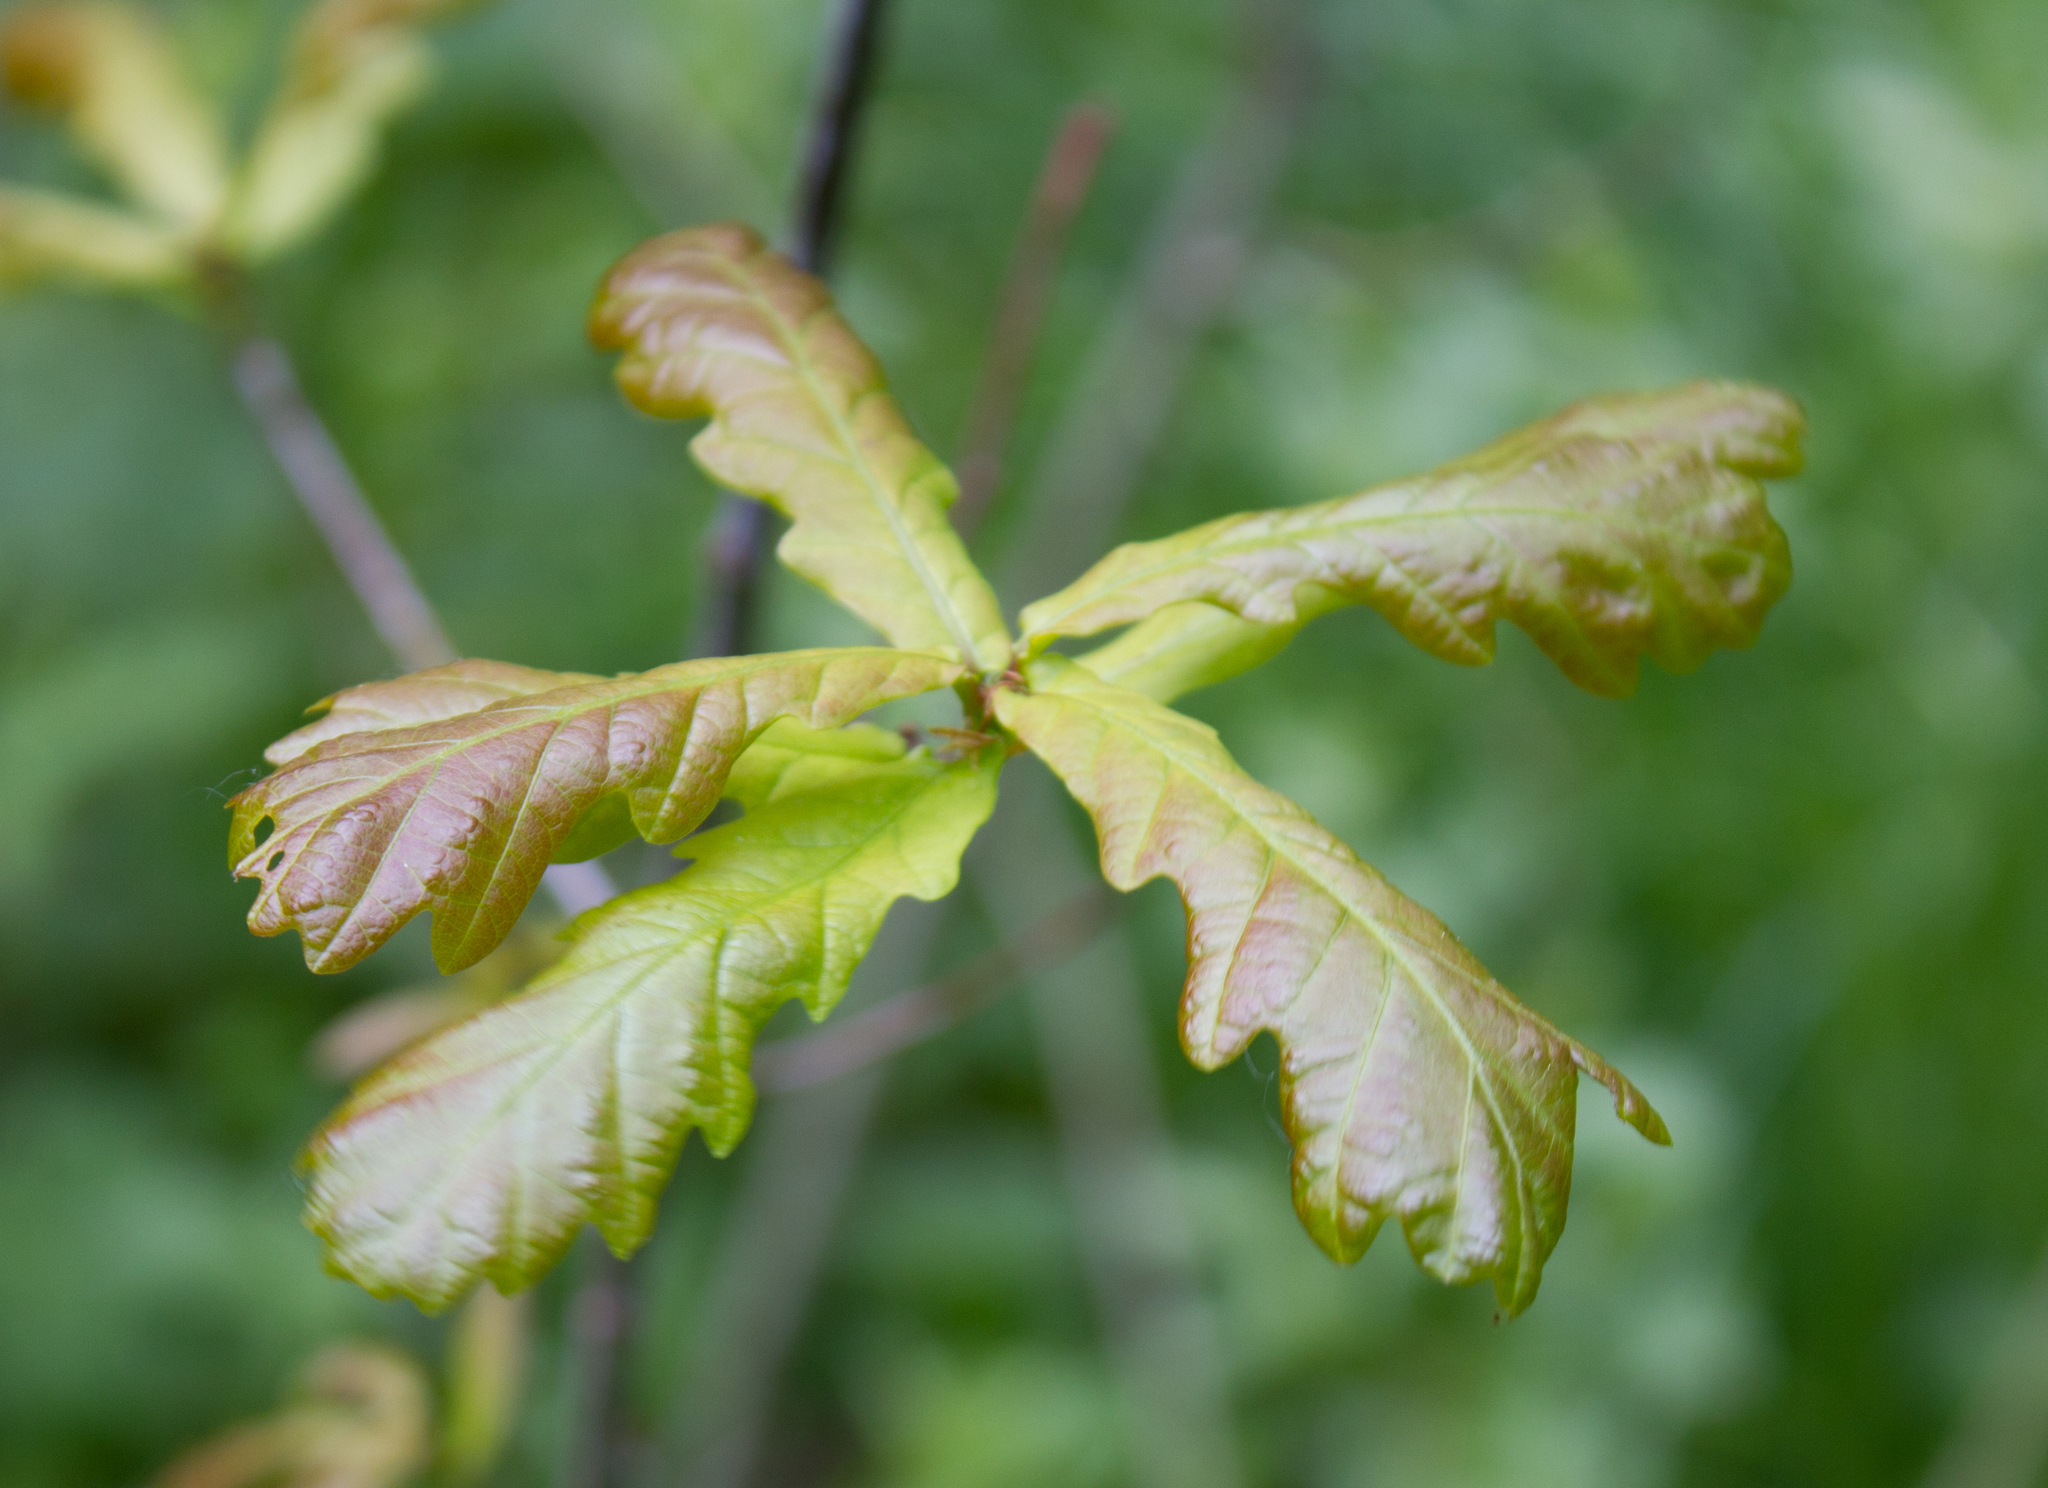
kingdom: Plantae
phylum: Tracheophyta
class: Magnoliopsida
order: Fagales
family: Fagaceae
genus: Quercus
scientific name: Quercus robur
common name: Pedunculate oak
